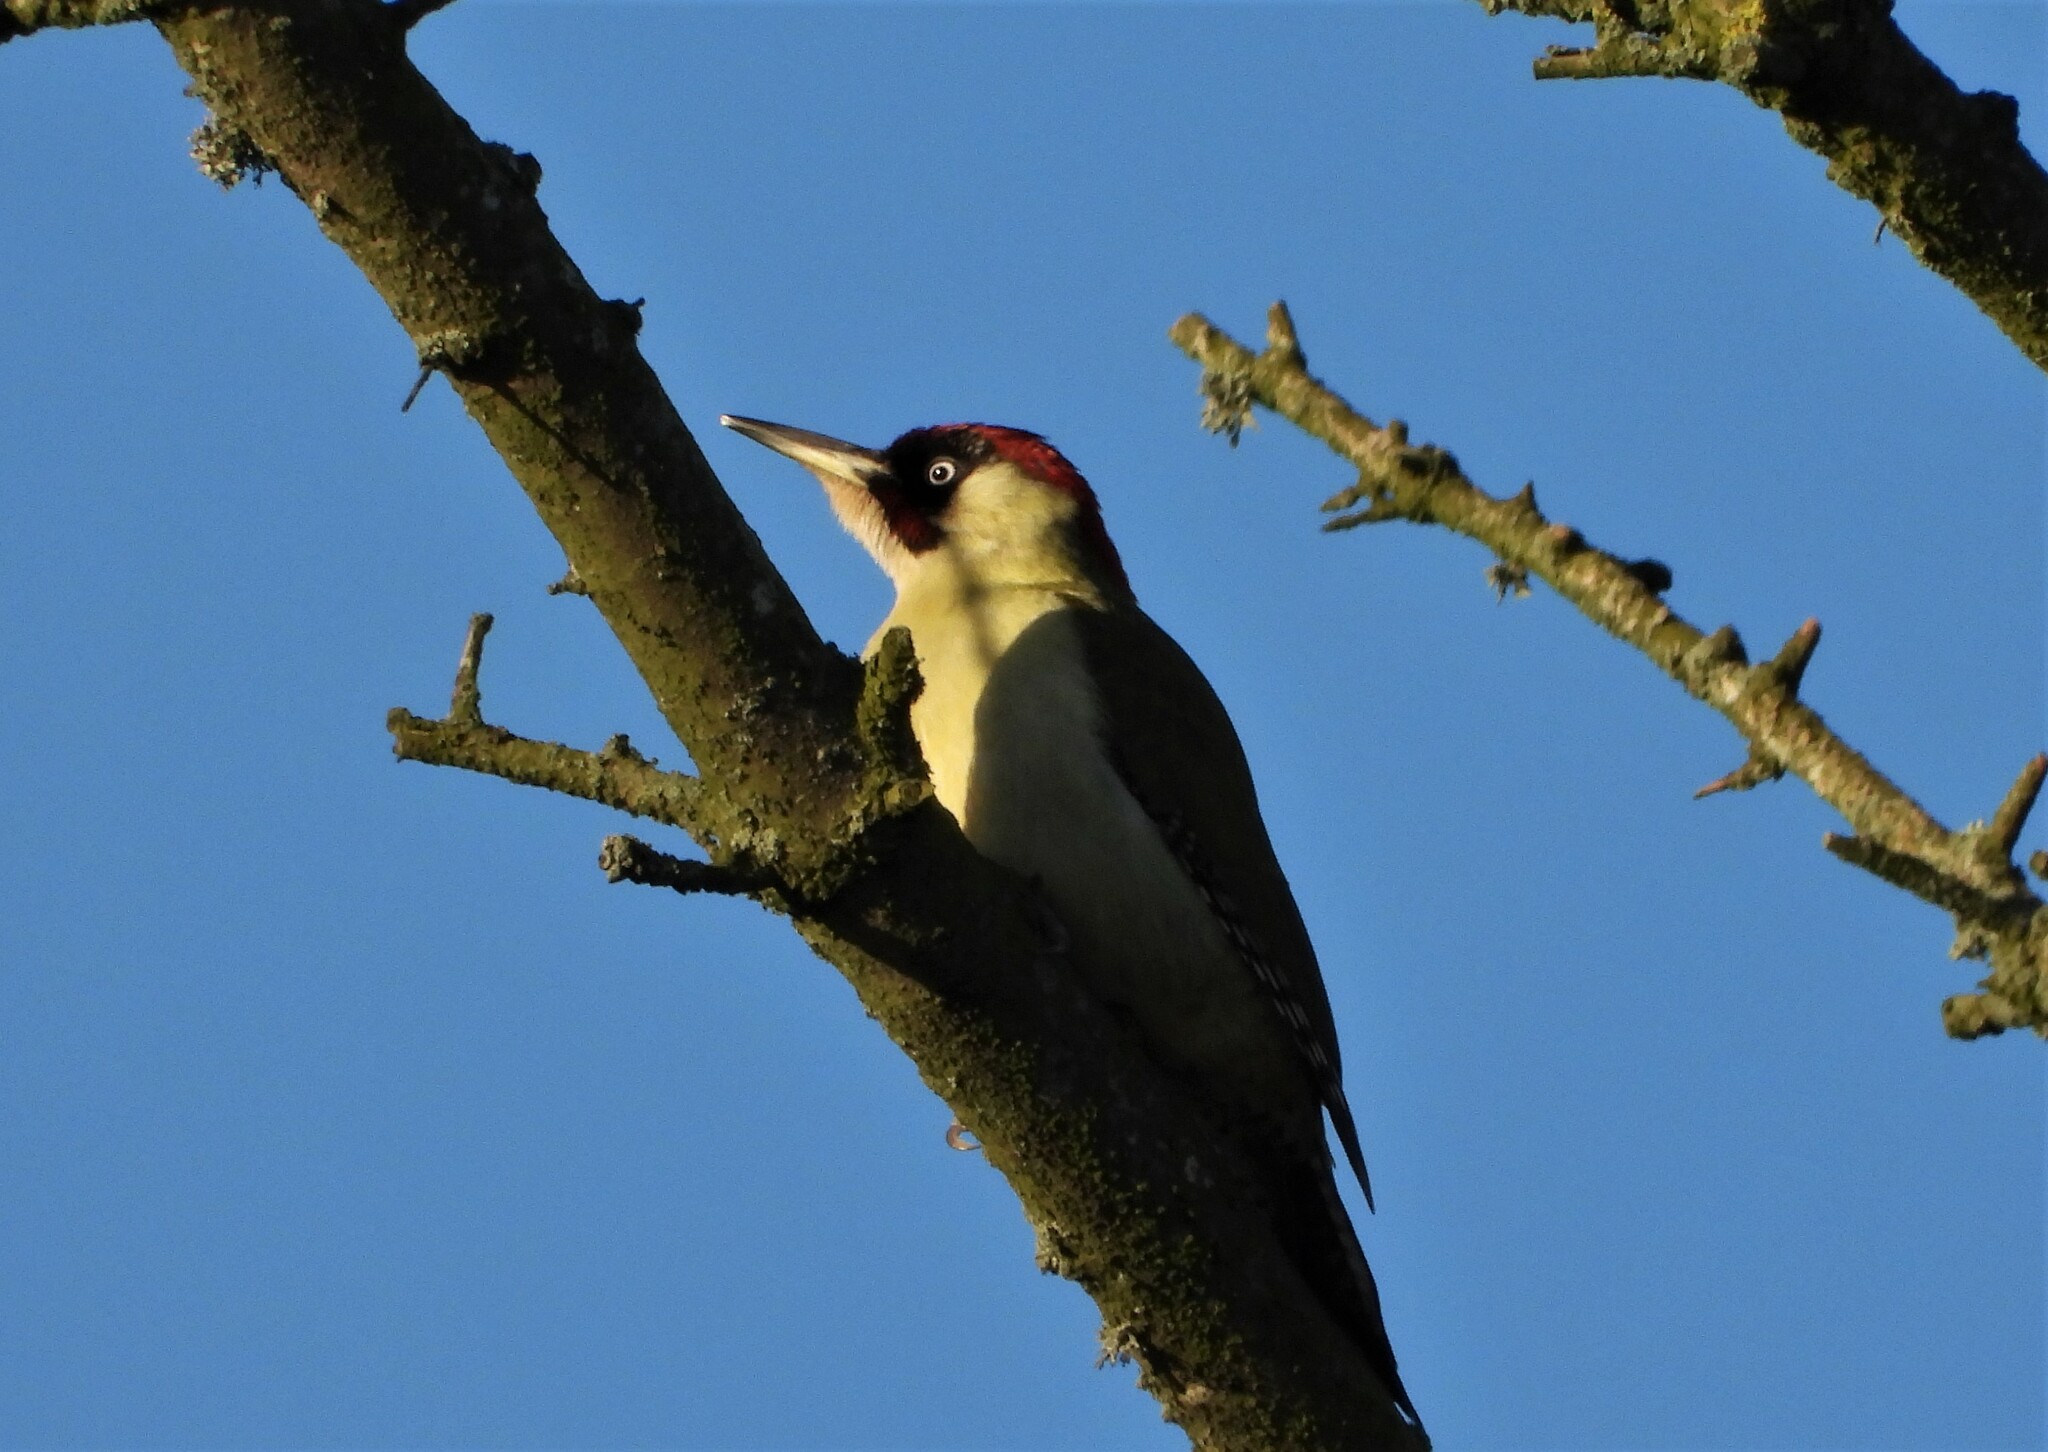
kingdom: Animalia
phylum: Chordata
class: Aves
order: Piciformes
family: Picidae
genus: Picus
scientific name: Picus viridis
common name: European green woodpecker
